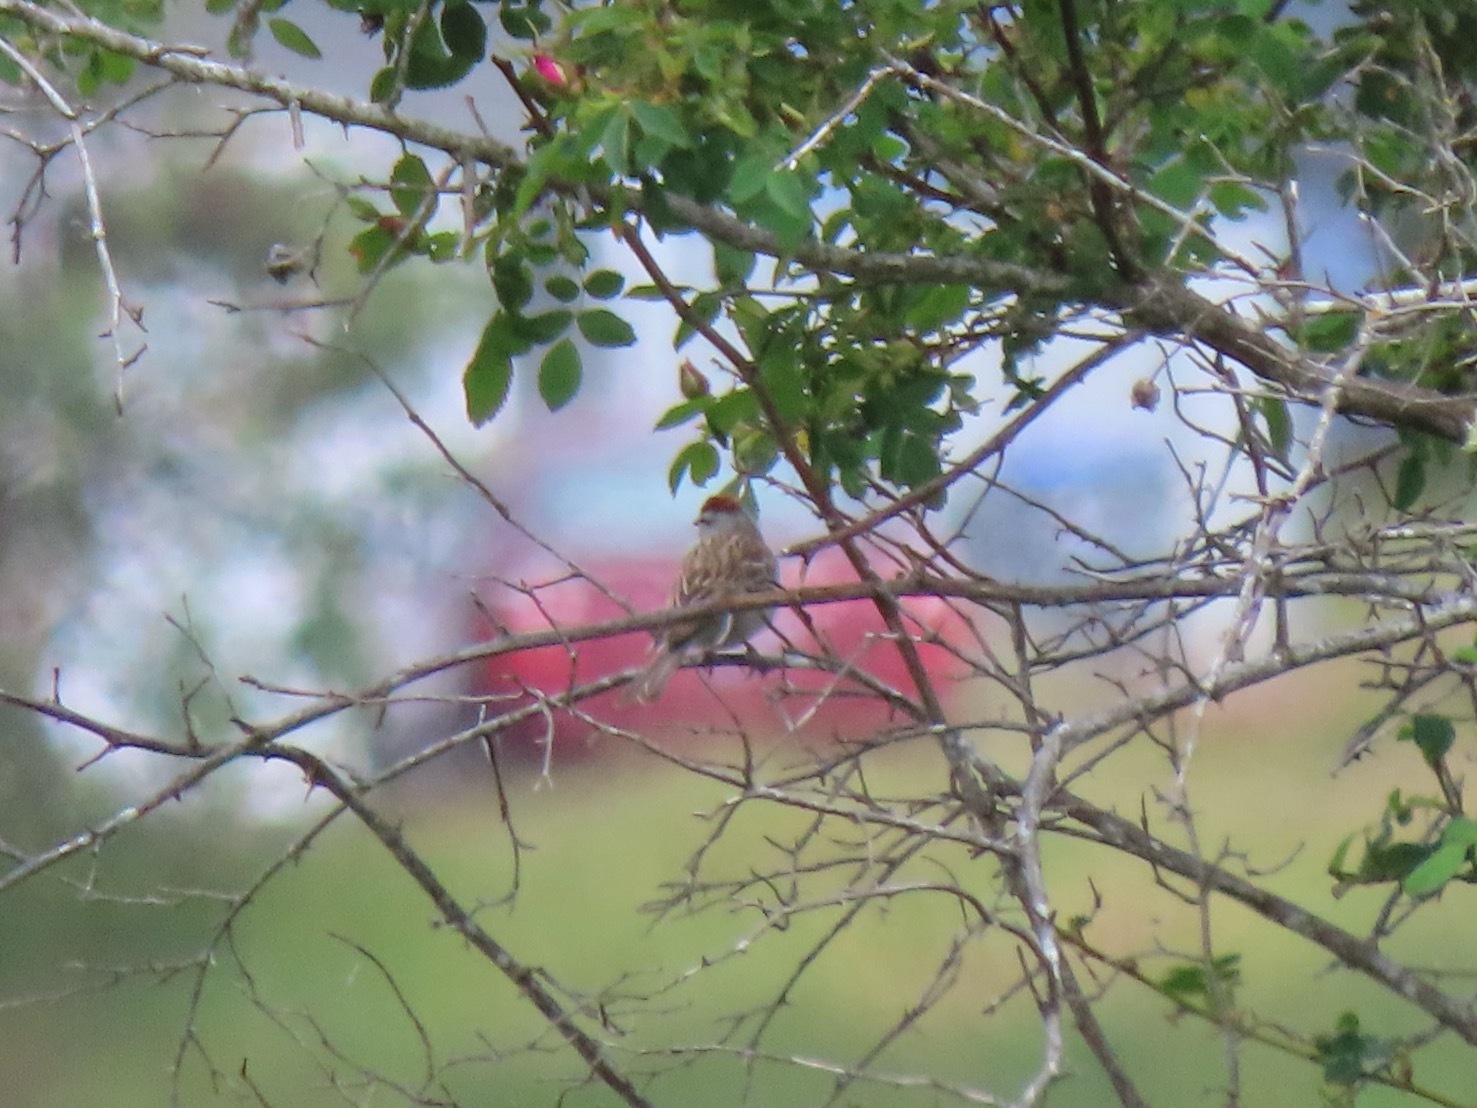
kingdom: Animalia
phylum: Chordata
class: Aves
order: Passeriformes
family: Passerellidae
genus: Spizella
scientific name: Spizella passerina
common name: Chipping sparrow
